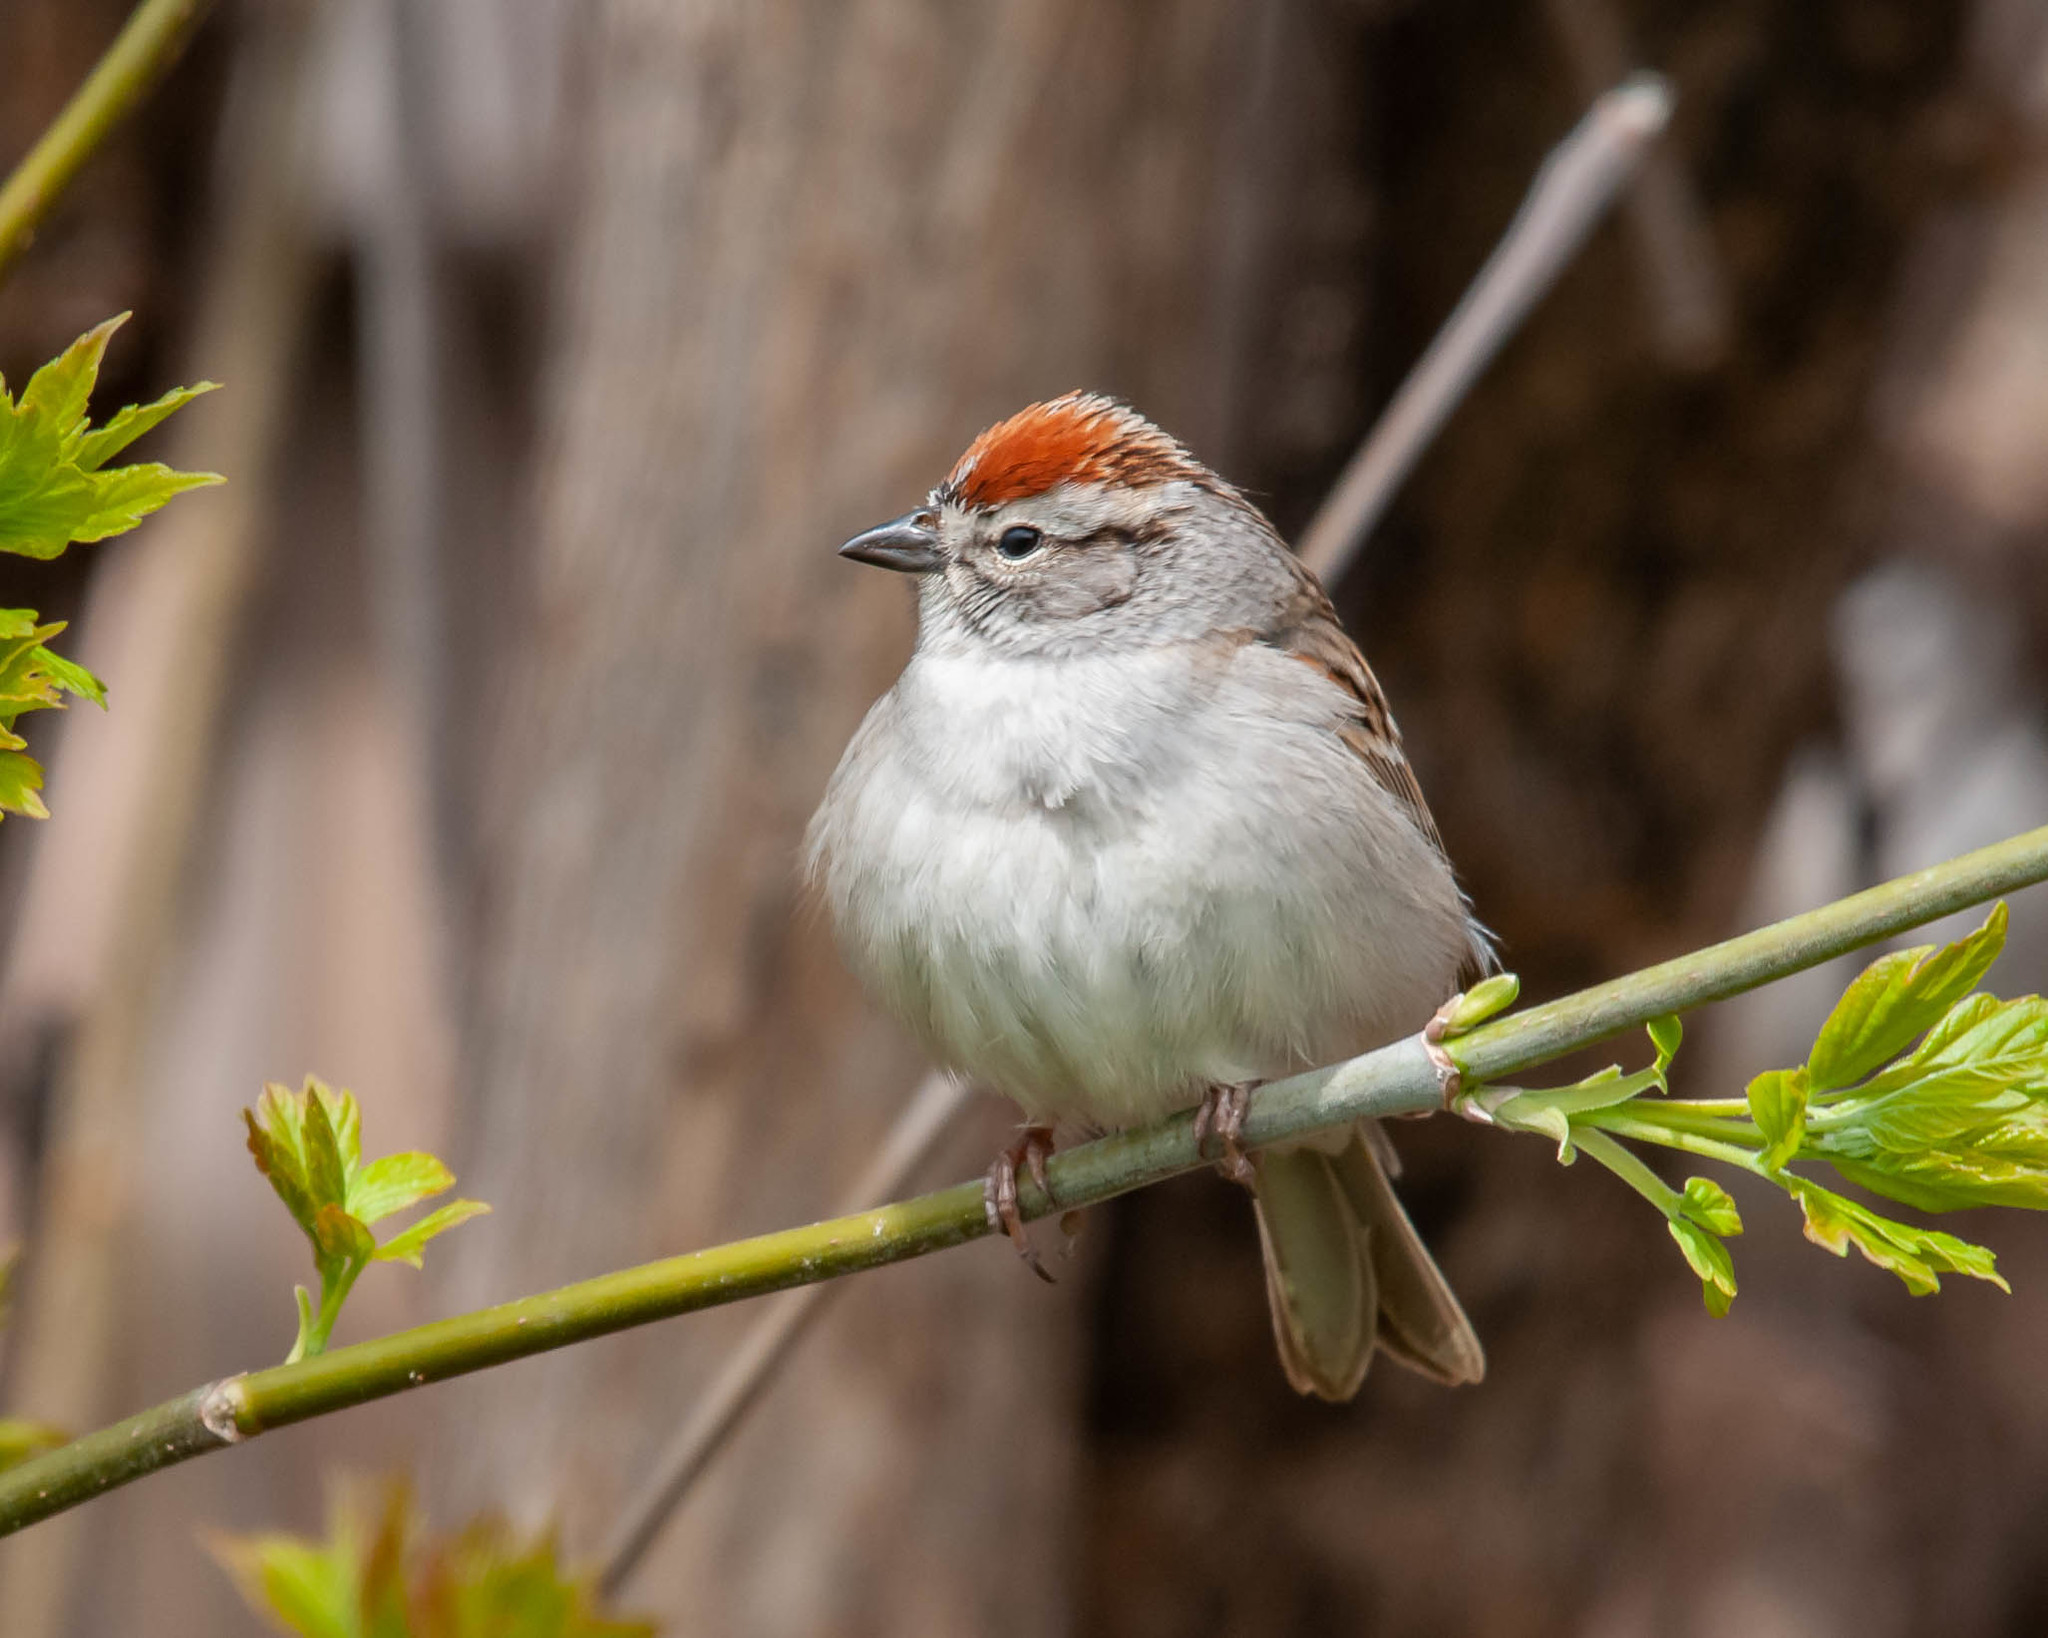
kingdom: Animalia
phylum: Chordata
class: Aves
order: Passeriformes
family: Passerellidae
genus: Spizella
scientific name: Spizella passerina
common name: Chipping sparrow
